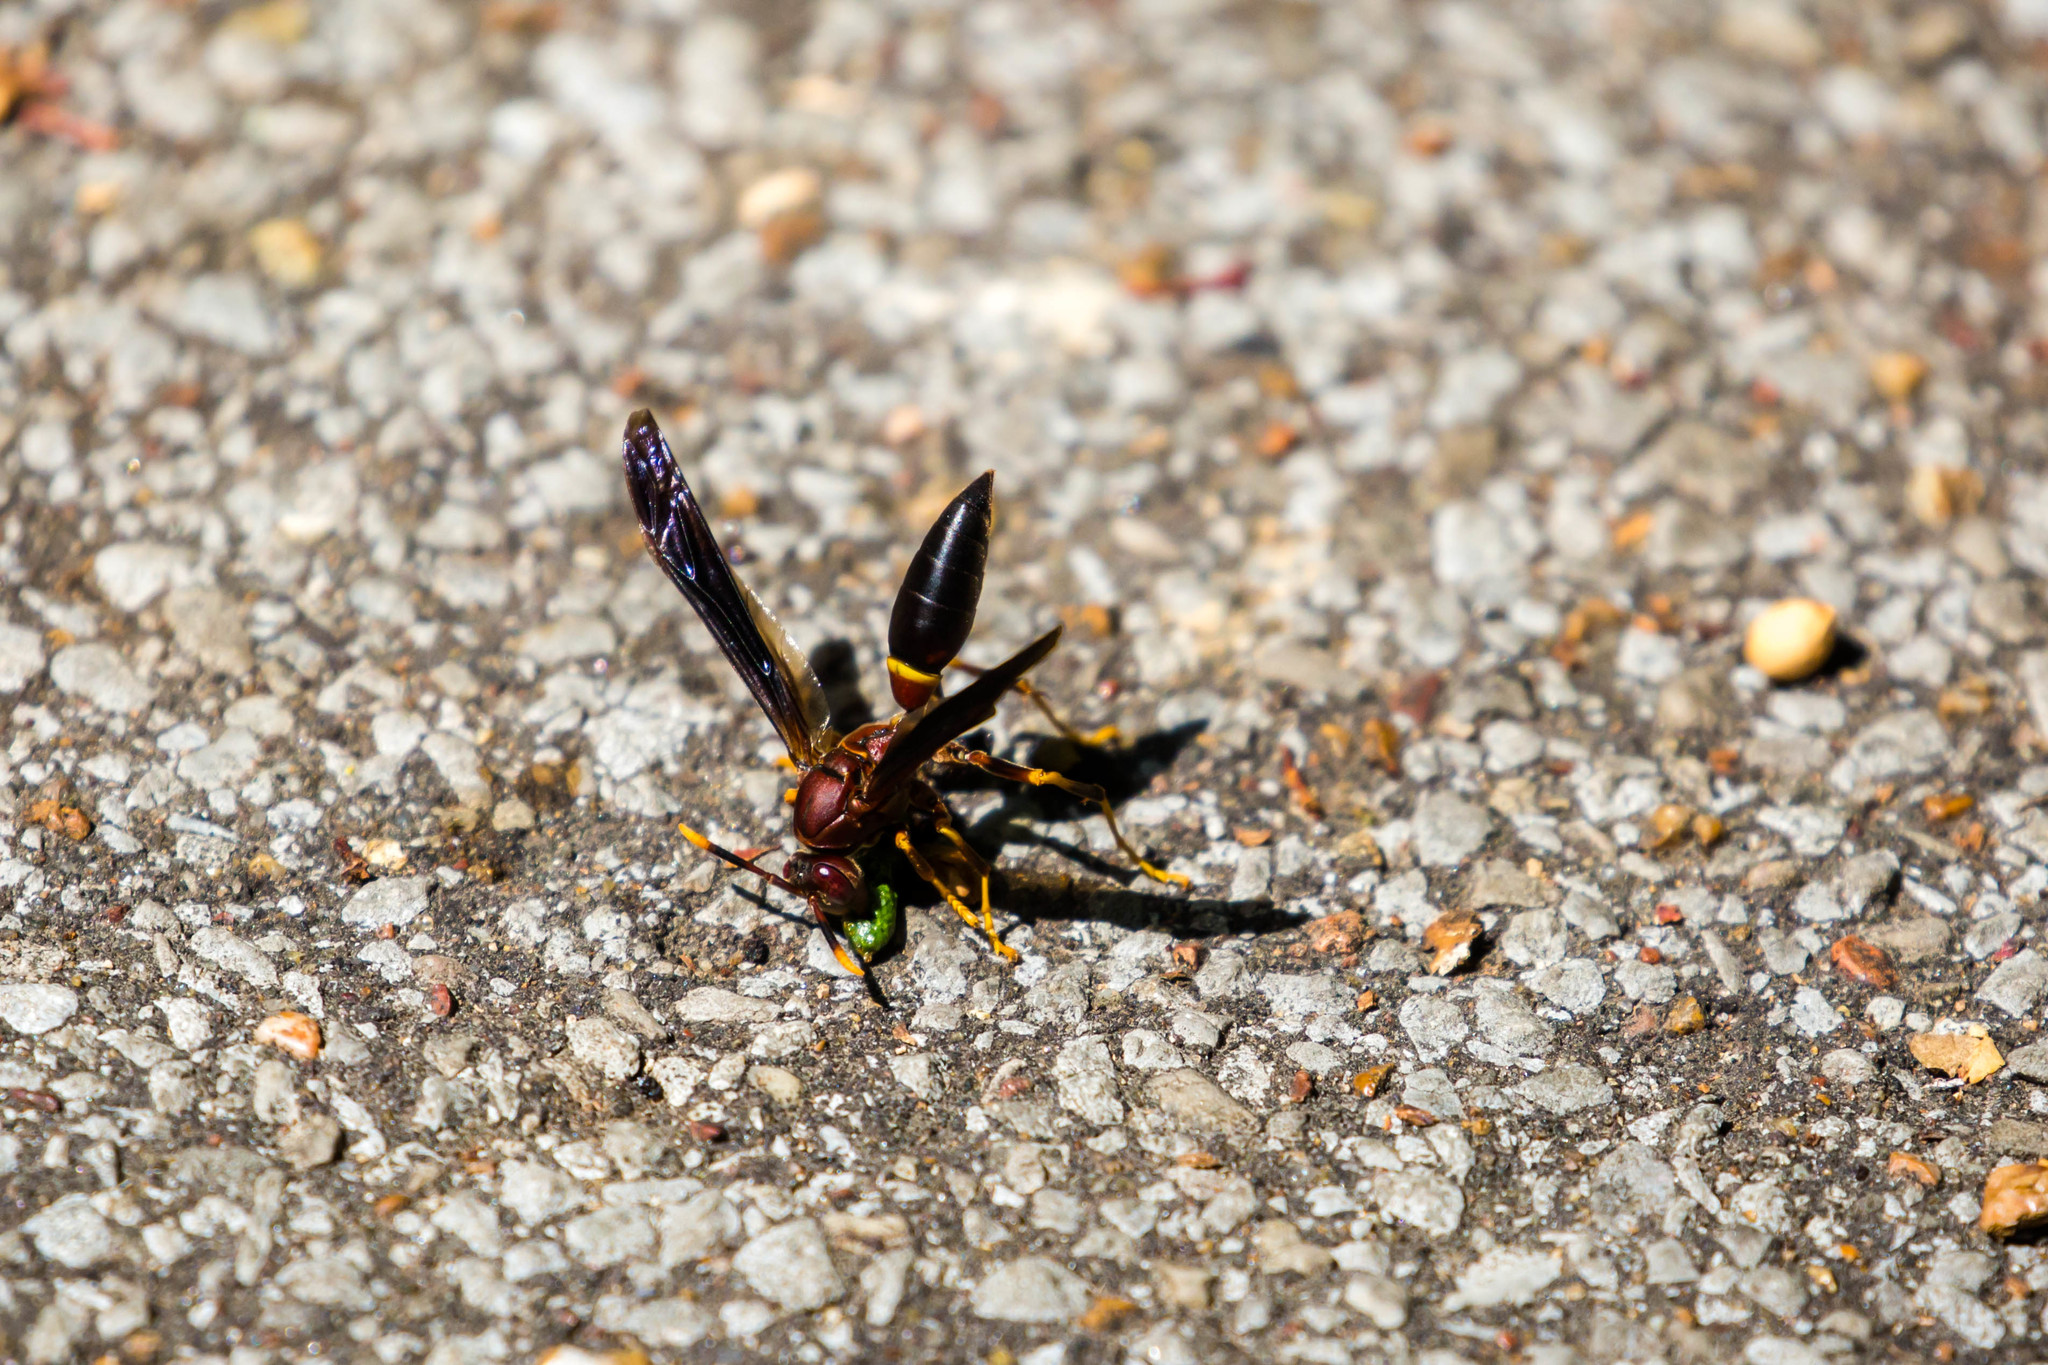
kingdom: Animalia
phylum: Arthropoda
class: Insecta
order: Hymenoptera
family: Eumenidae
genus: Polistes
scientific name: Polistes annularis
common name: Ringed paper wasp
